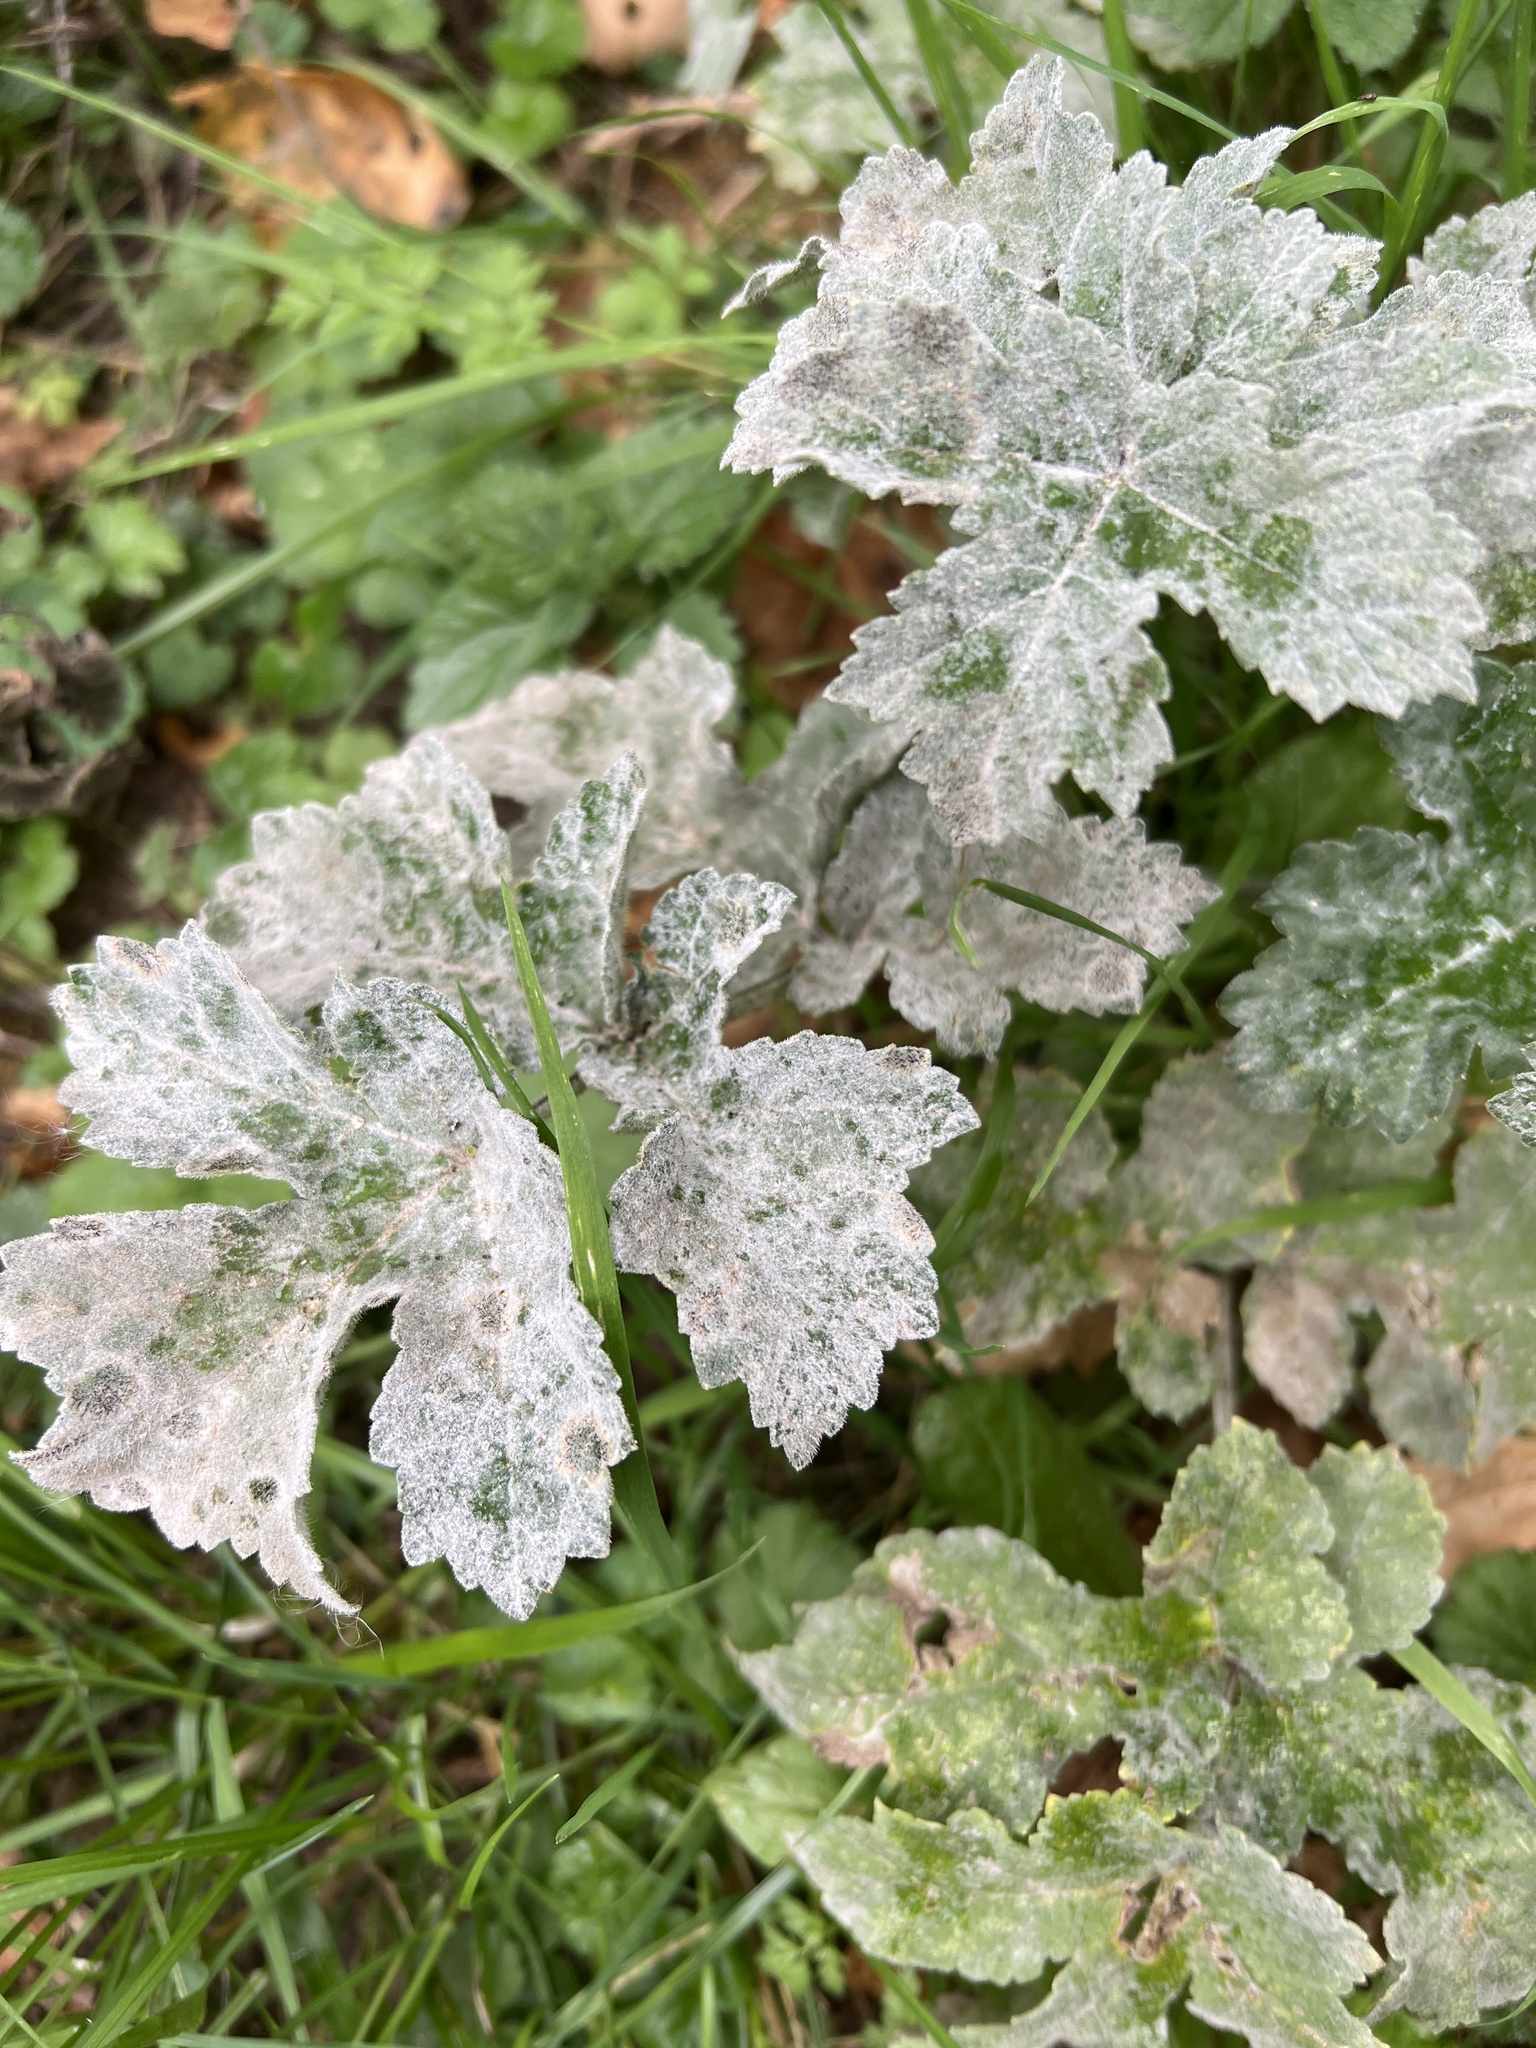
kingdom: Fungi
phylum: Ascomycota
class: Leotiomycetes
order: Helotiales
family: Erysiphaceae
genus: Erysiphe
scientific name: Erysiphe heraclei
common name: Umbellifer mildew
